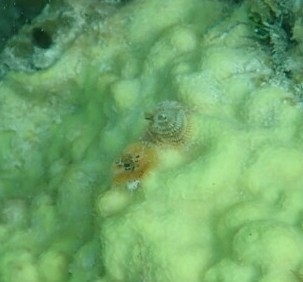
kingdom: Animalia
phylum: Annelida
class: Polychaeta
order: Sabellida
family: Serpulidae
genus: Spirobranchus
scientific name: Spirobranchus giganteus
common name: Christmas tree worm
